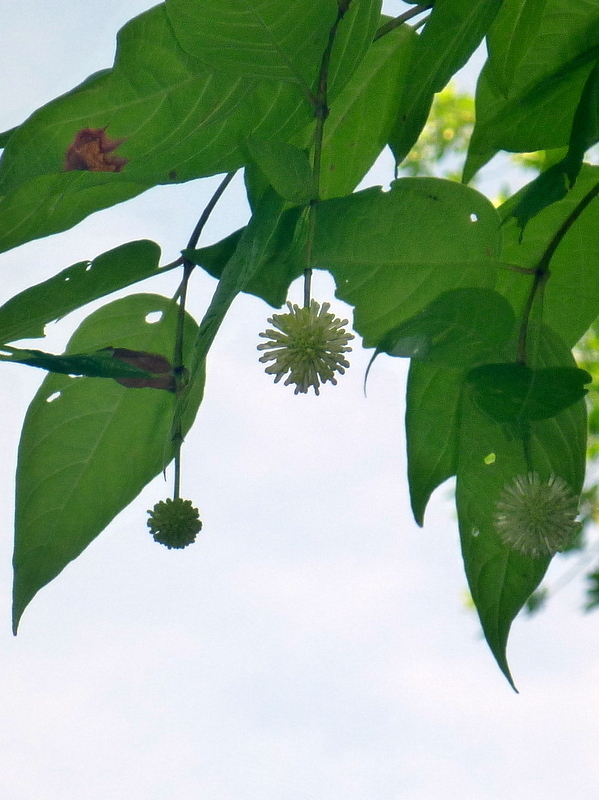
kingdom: Plantae
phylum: Tracheophyta
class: Magnoliopsida
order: Gentianales
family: Rubiaceae
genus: Cephalanthus
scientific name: Cephalanthus occidentalis
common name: Button-willow
